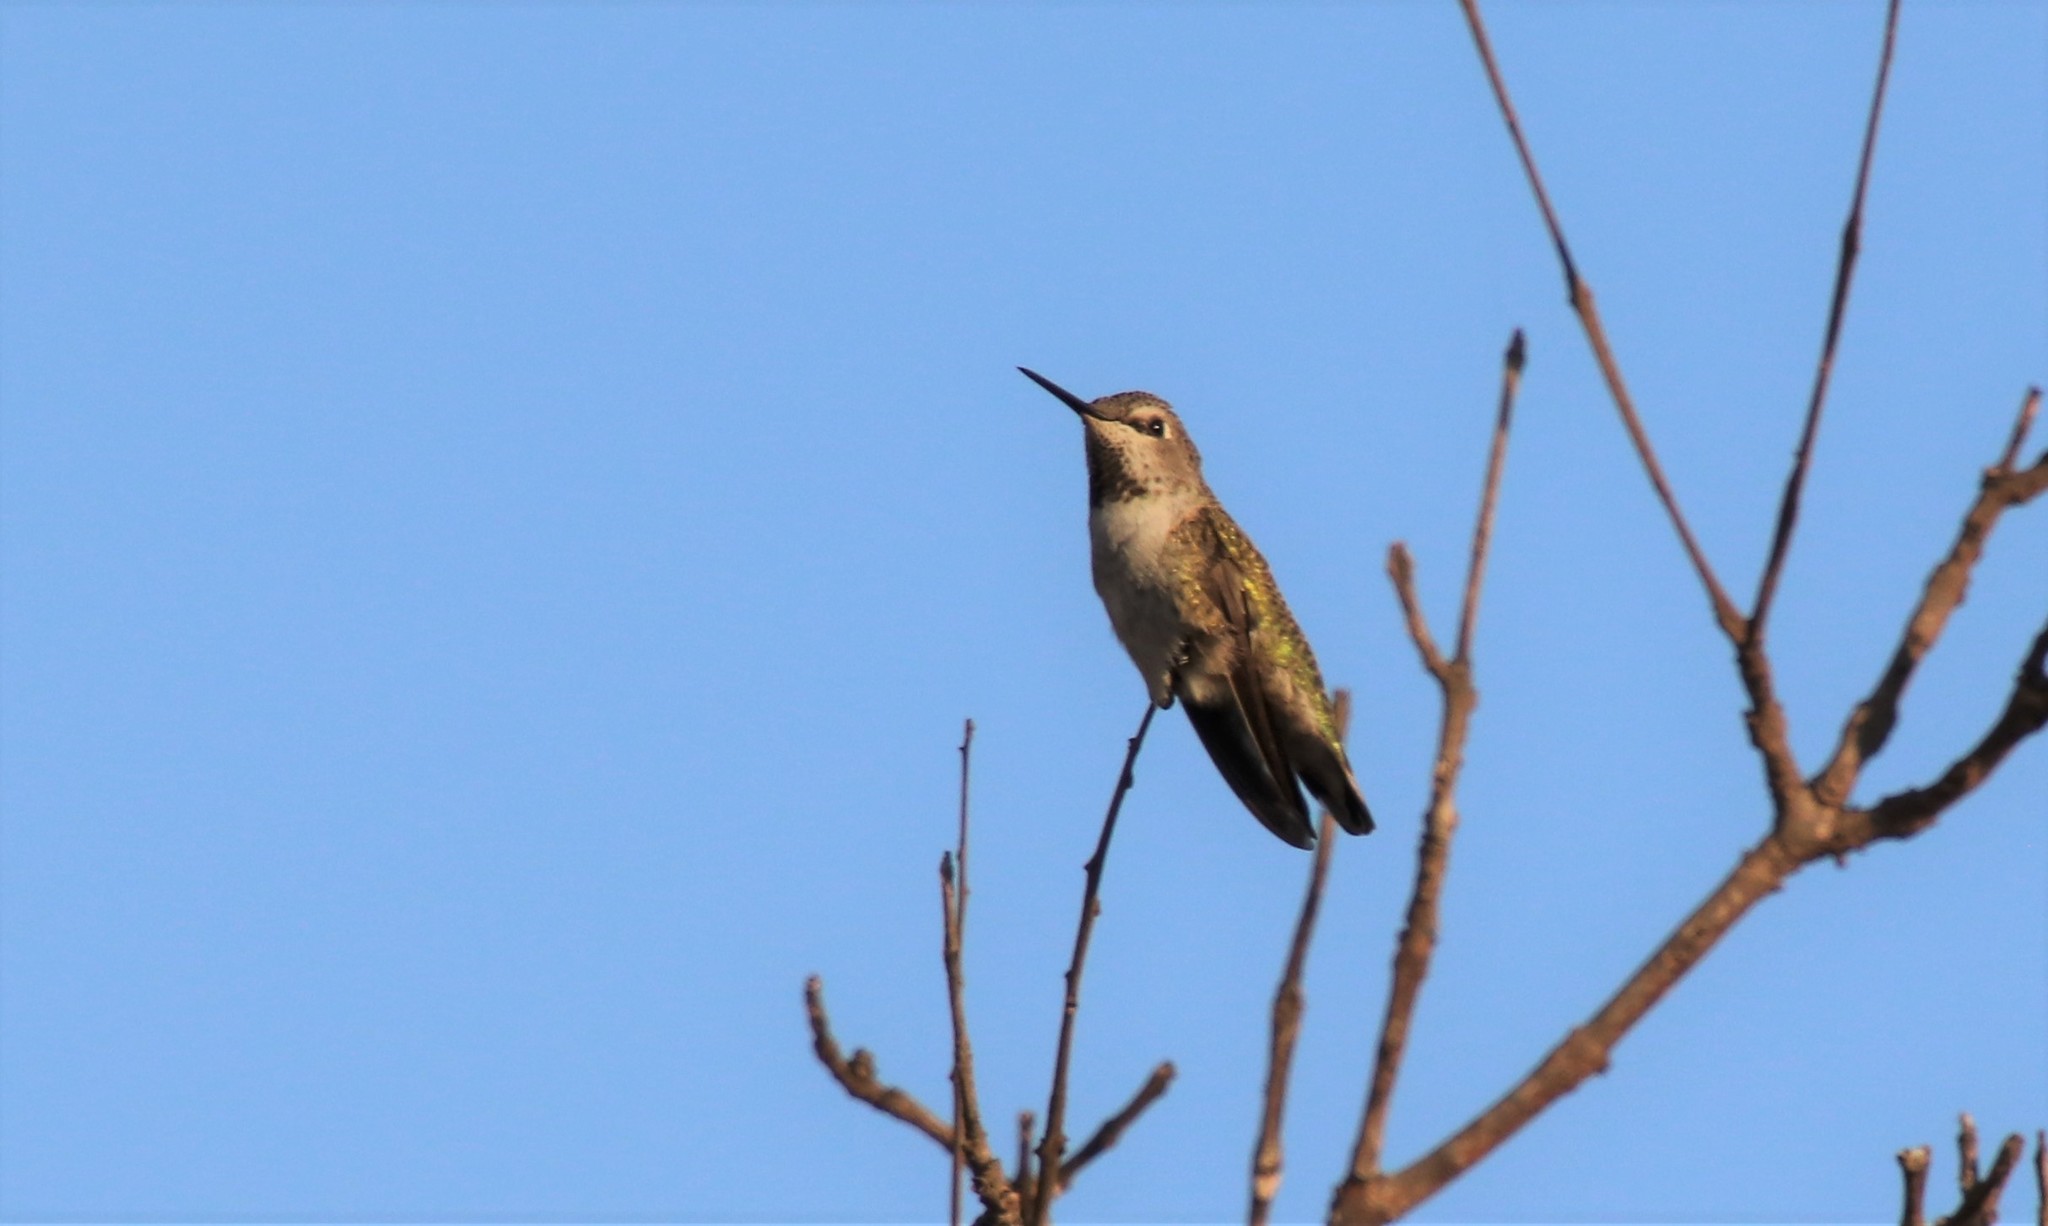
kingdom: Animalia
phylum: Chordata
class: Aves
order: Apodiformes
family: Trochilidae
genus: Calypte
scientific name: Calypte anna
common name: Anna's hummingbird
